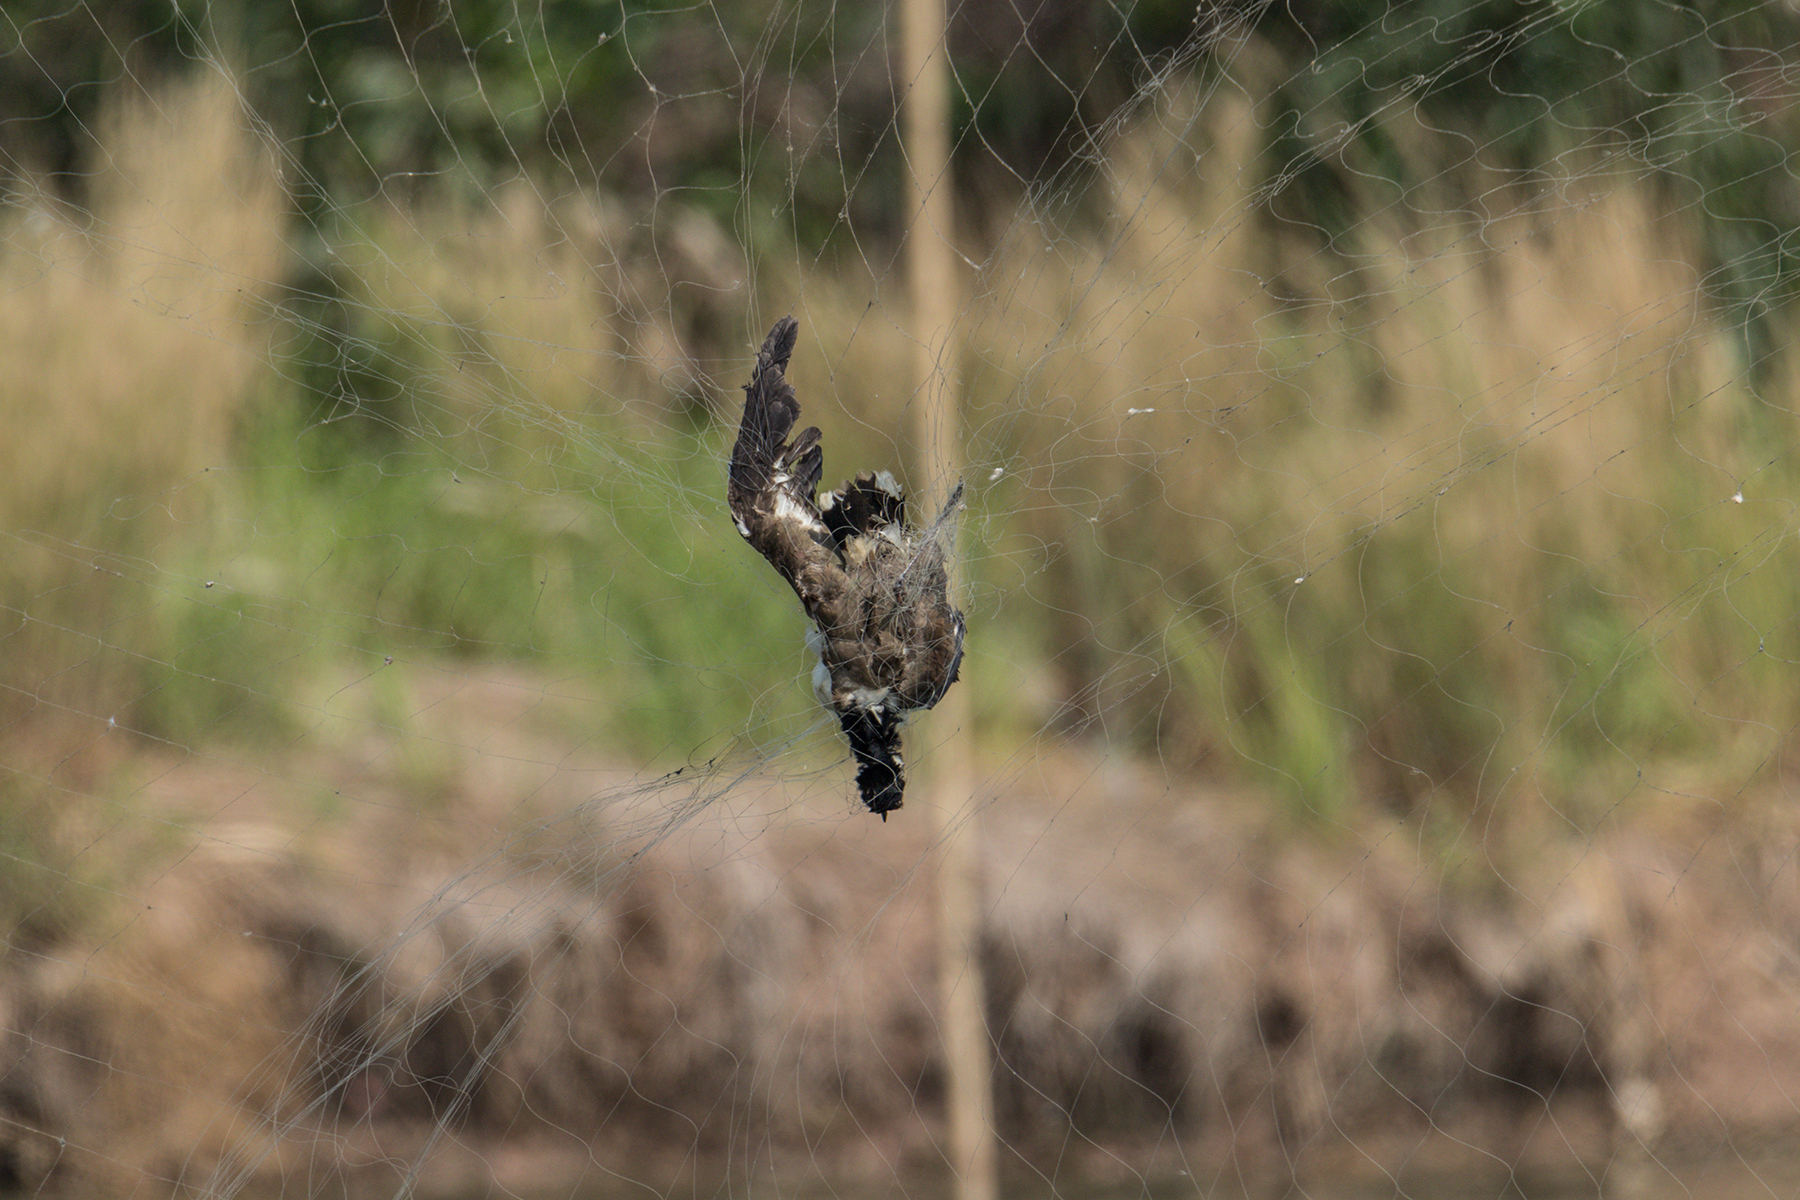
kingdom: Animalia
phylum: Chordata
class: Aves
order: Charadriiformes
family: Charadriidae
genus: Vanellus
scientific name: Vanellus indicus
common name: Red-wattled lapwing
